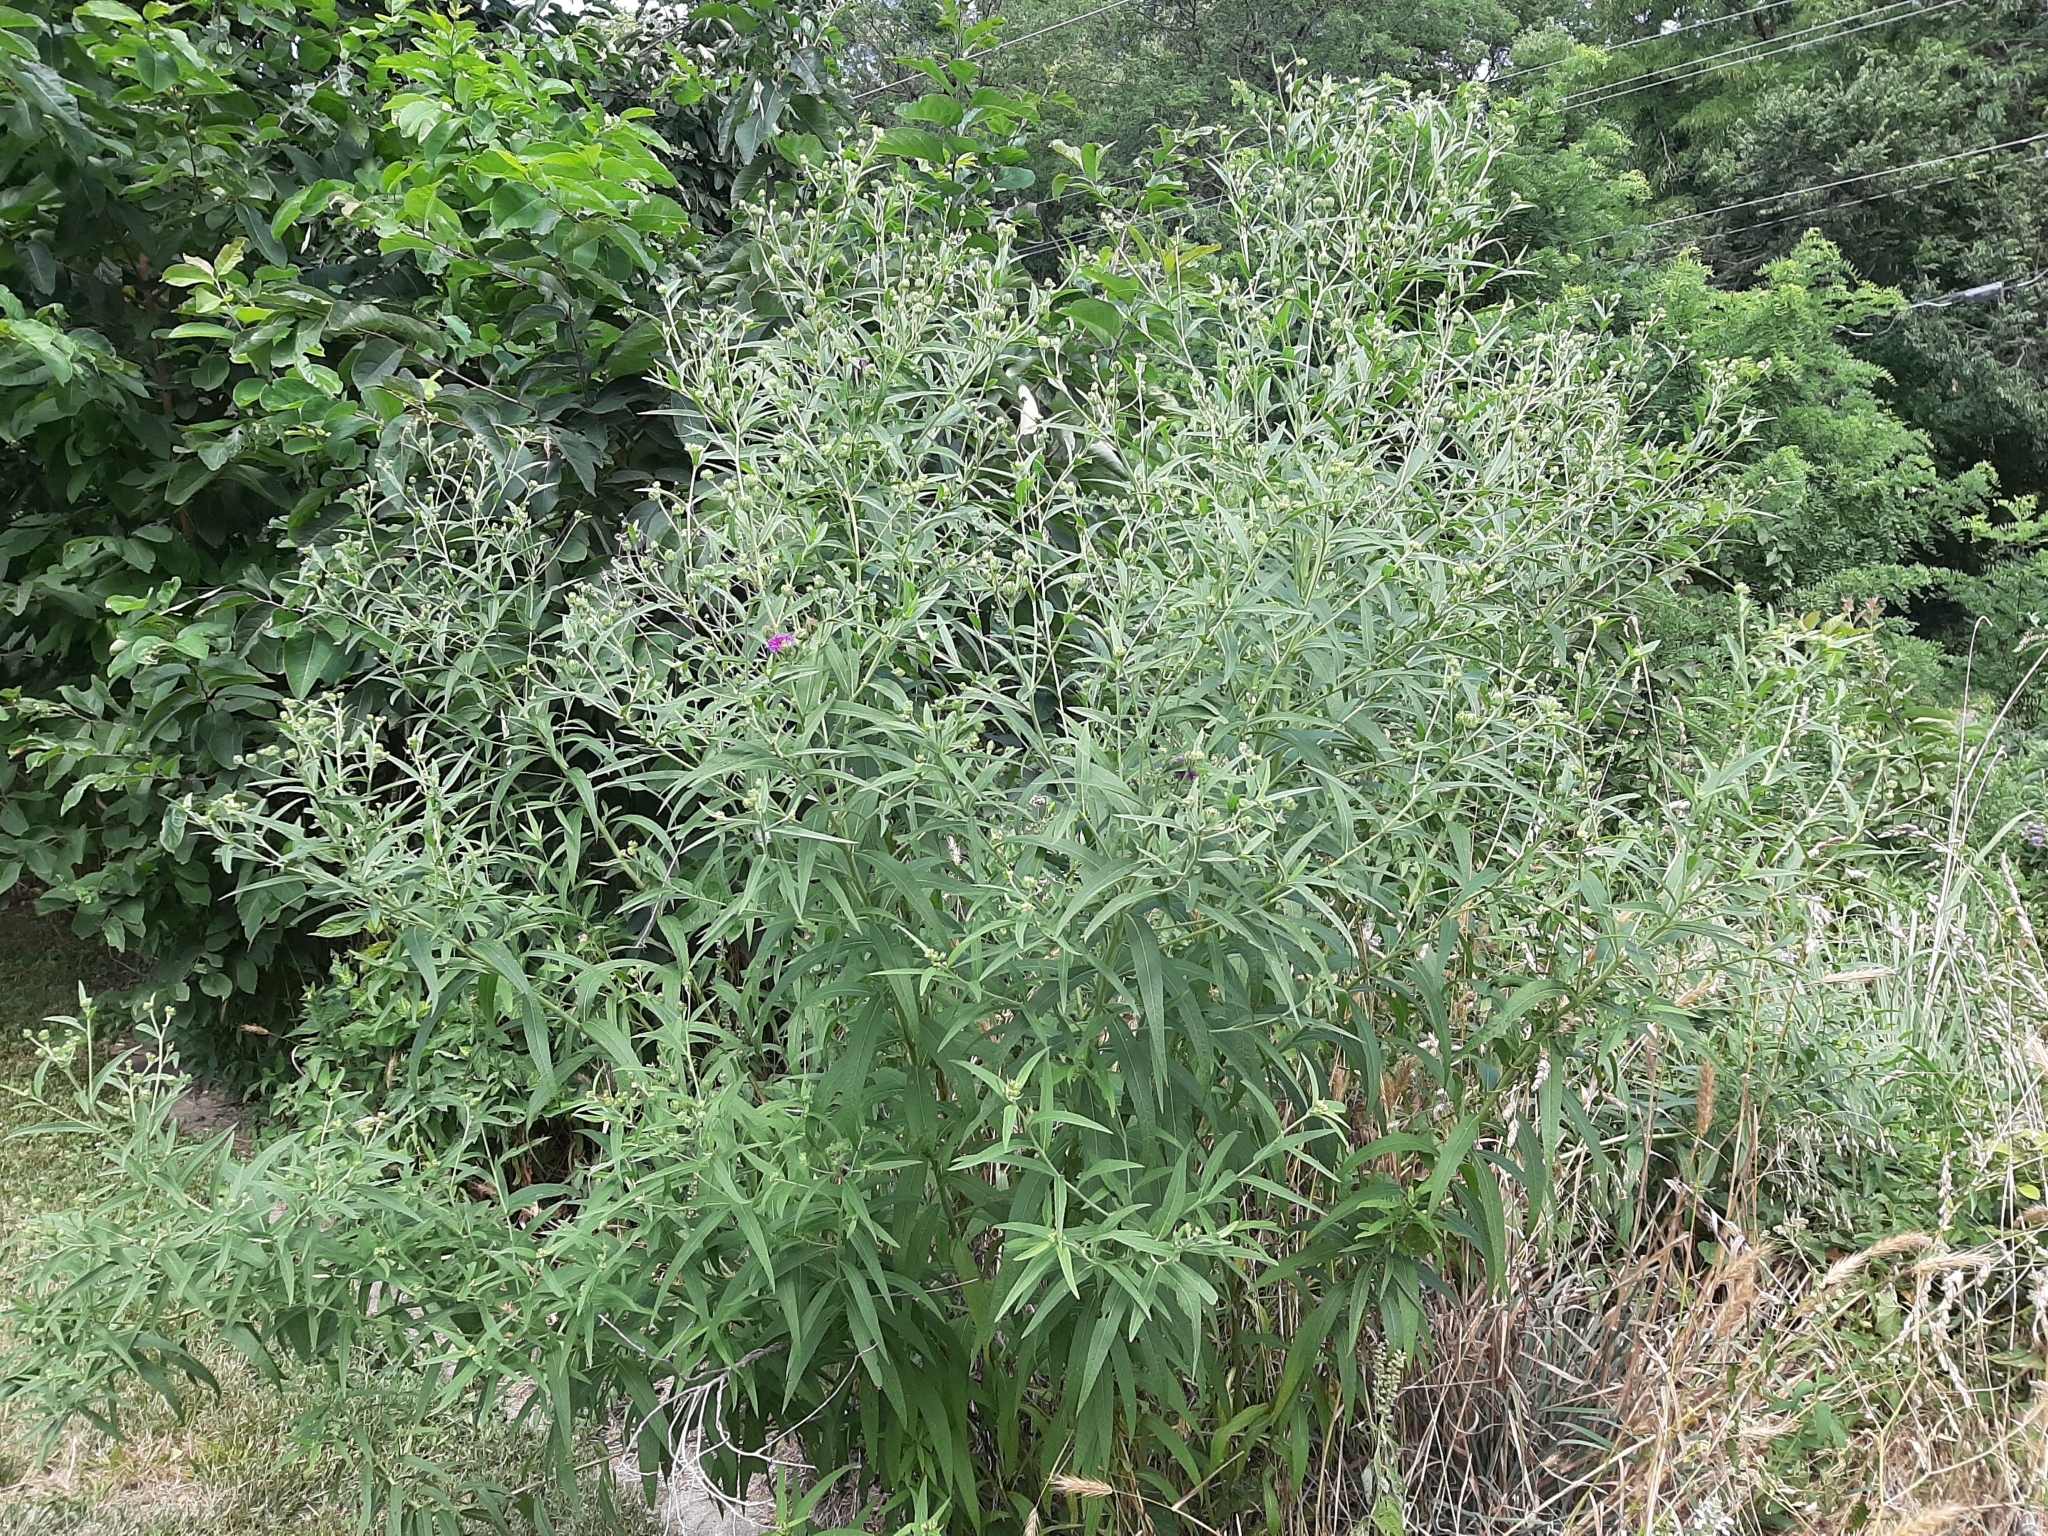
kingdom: Plantae
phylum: Tracheophyta
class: Magnoliopsida
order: Asterales
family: Asteraceae
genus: Vernonia
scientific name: Vernonia arkansana
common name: Ozark ironweed
